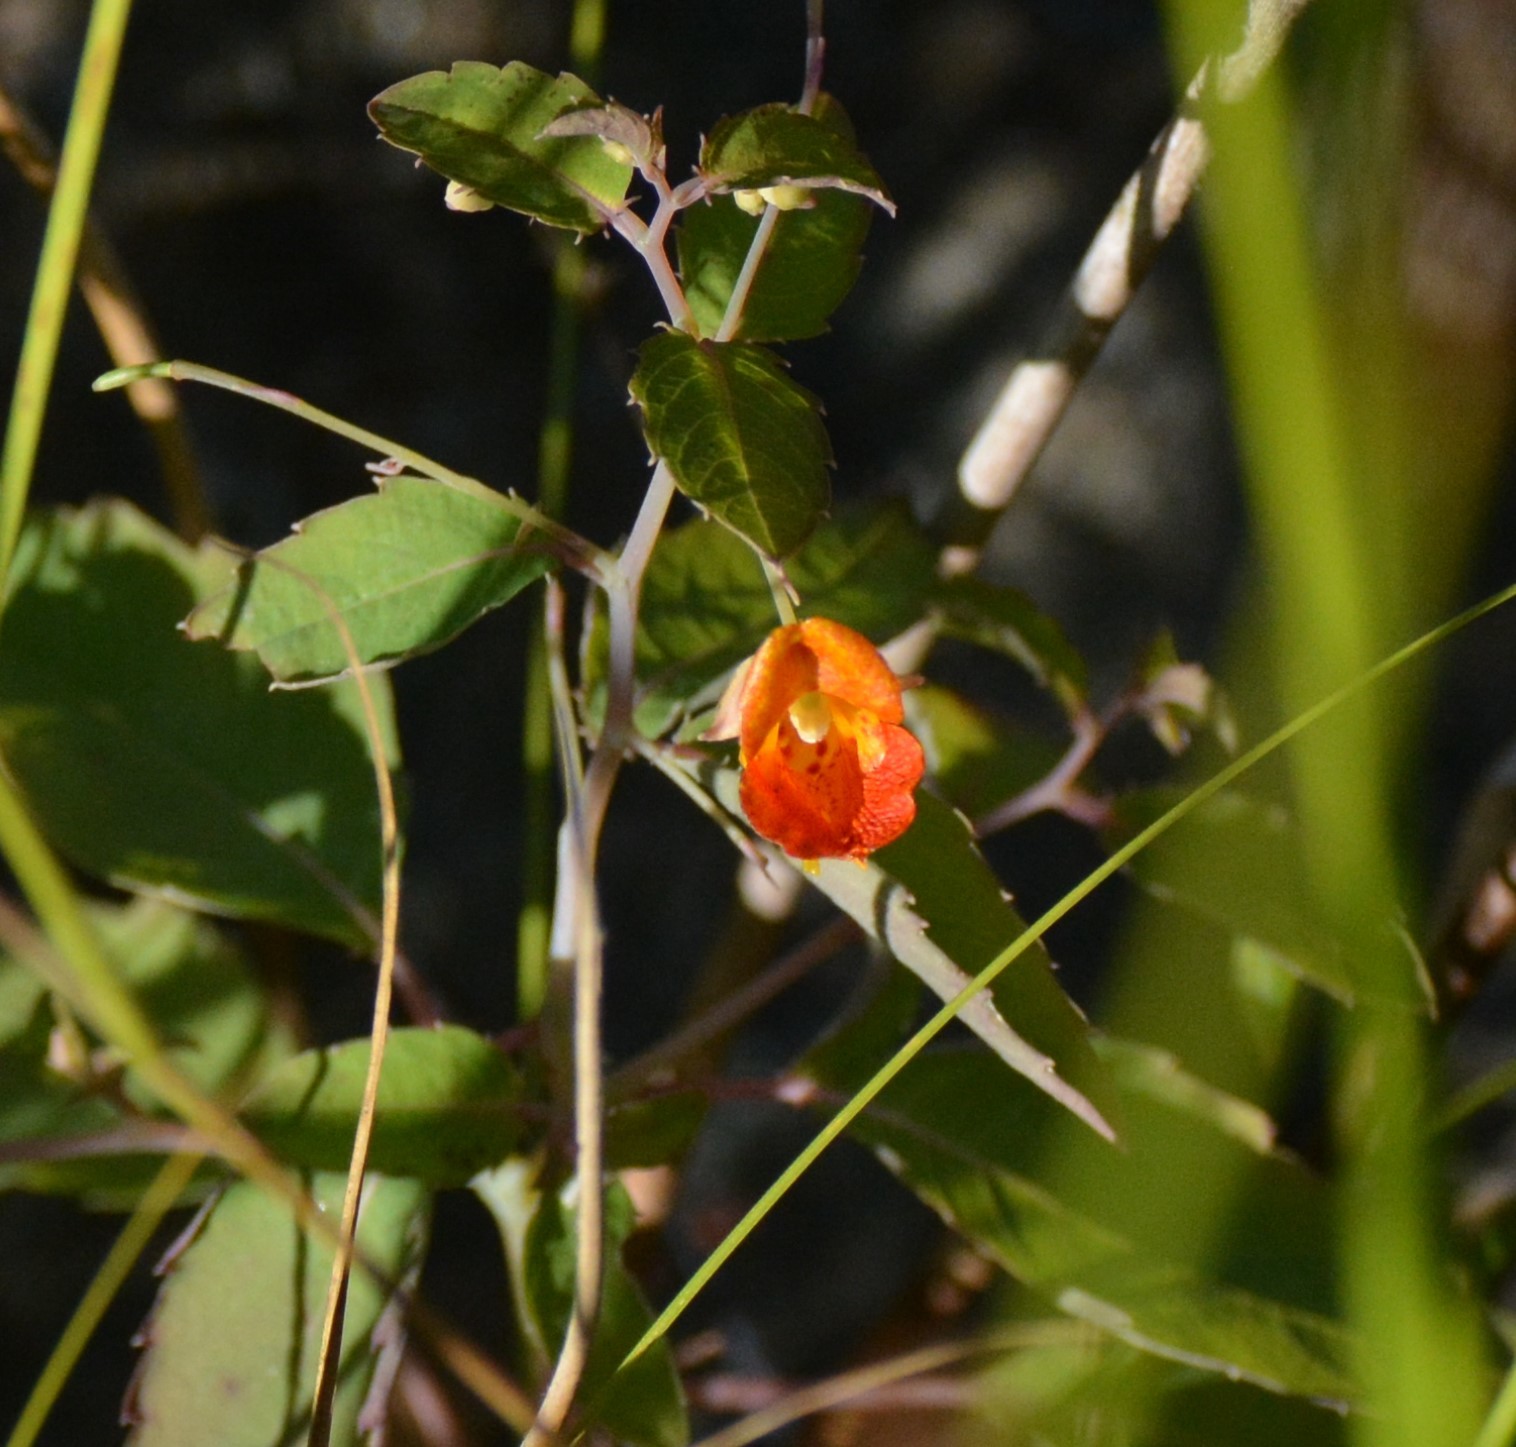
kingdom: Plantae
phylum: Tracheophyta
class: Magnoliopsida
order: Ericales
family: Balsaminaceae
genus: Impatiens
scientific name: Impatiens capensis
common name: Orange balsam
